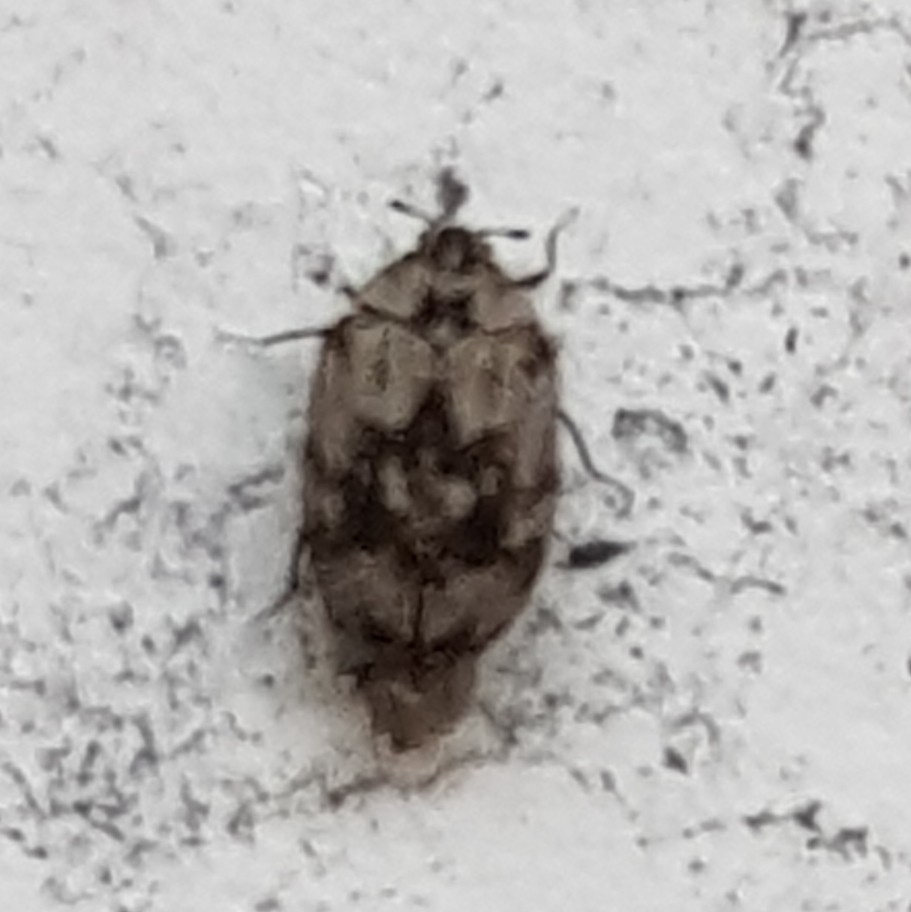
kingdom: Animalia
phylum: Arthropoda
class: Insecta
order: Coleoptera
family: Dermestidae
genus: Anthrenus
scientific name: Anthrenus sarnicus
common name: Guernsey carpet beetle
